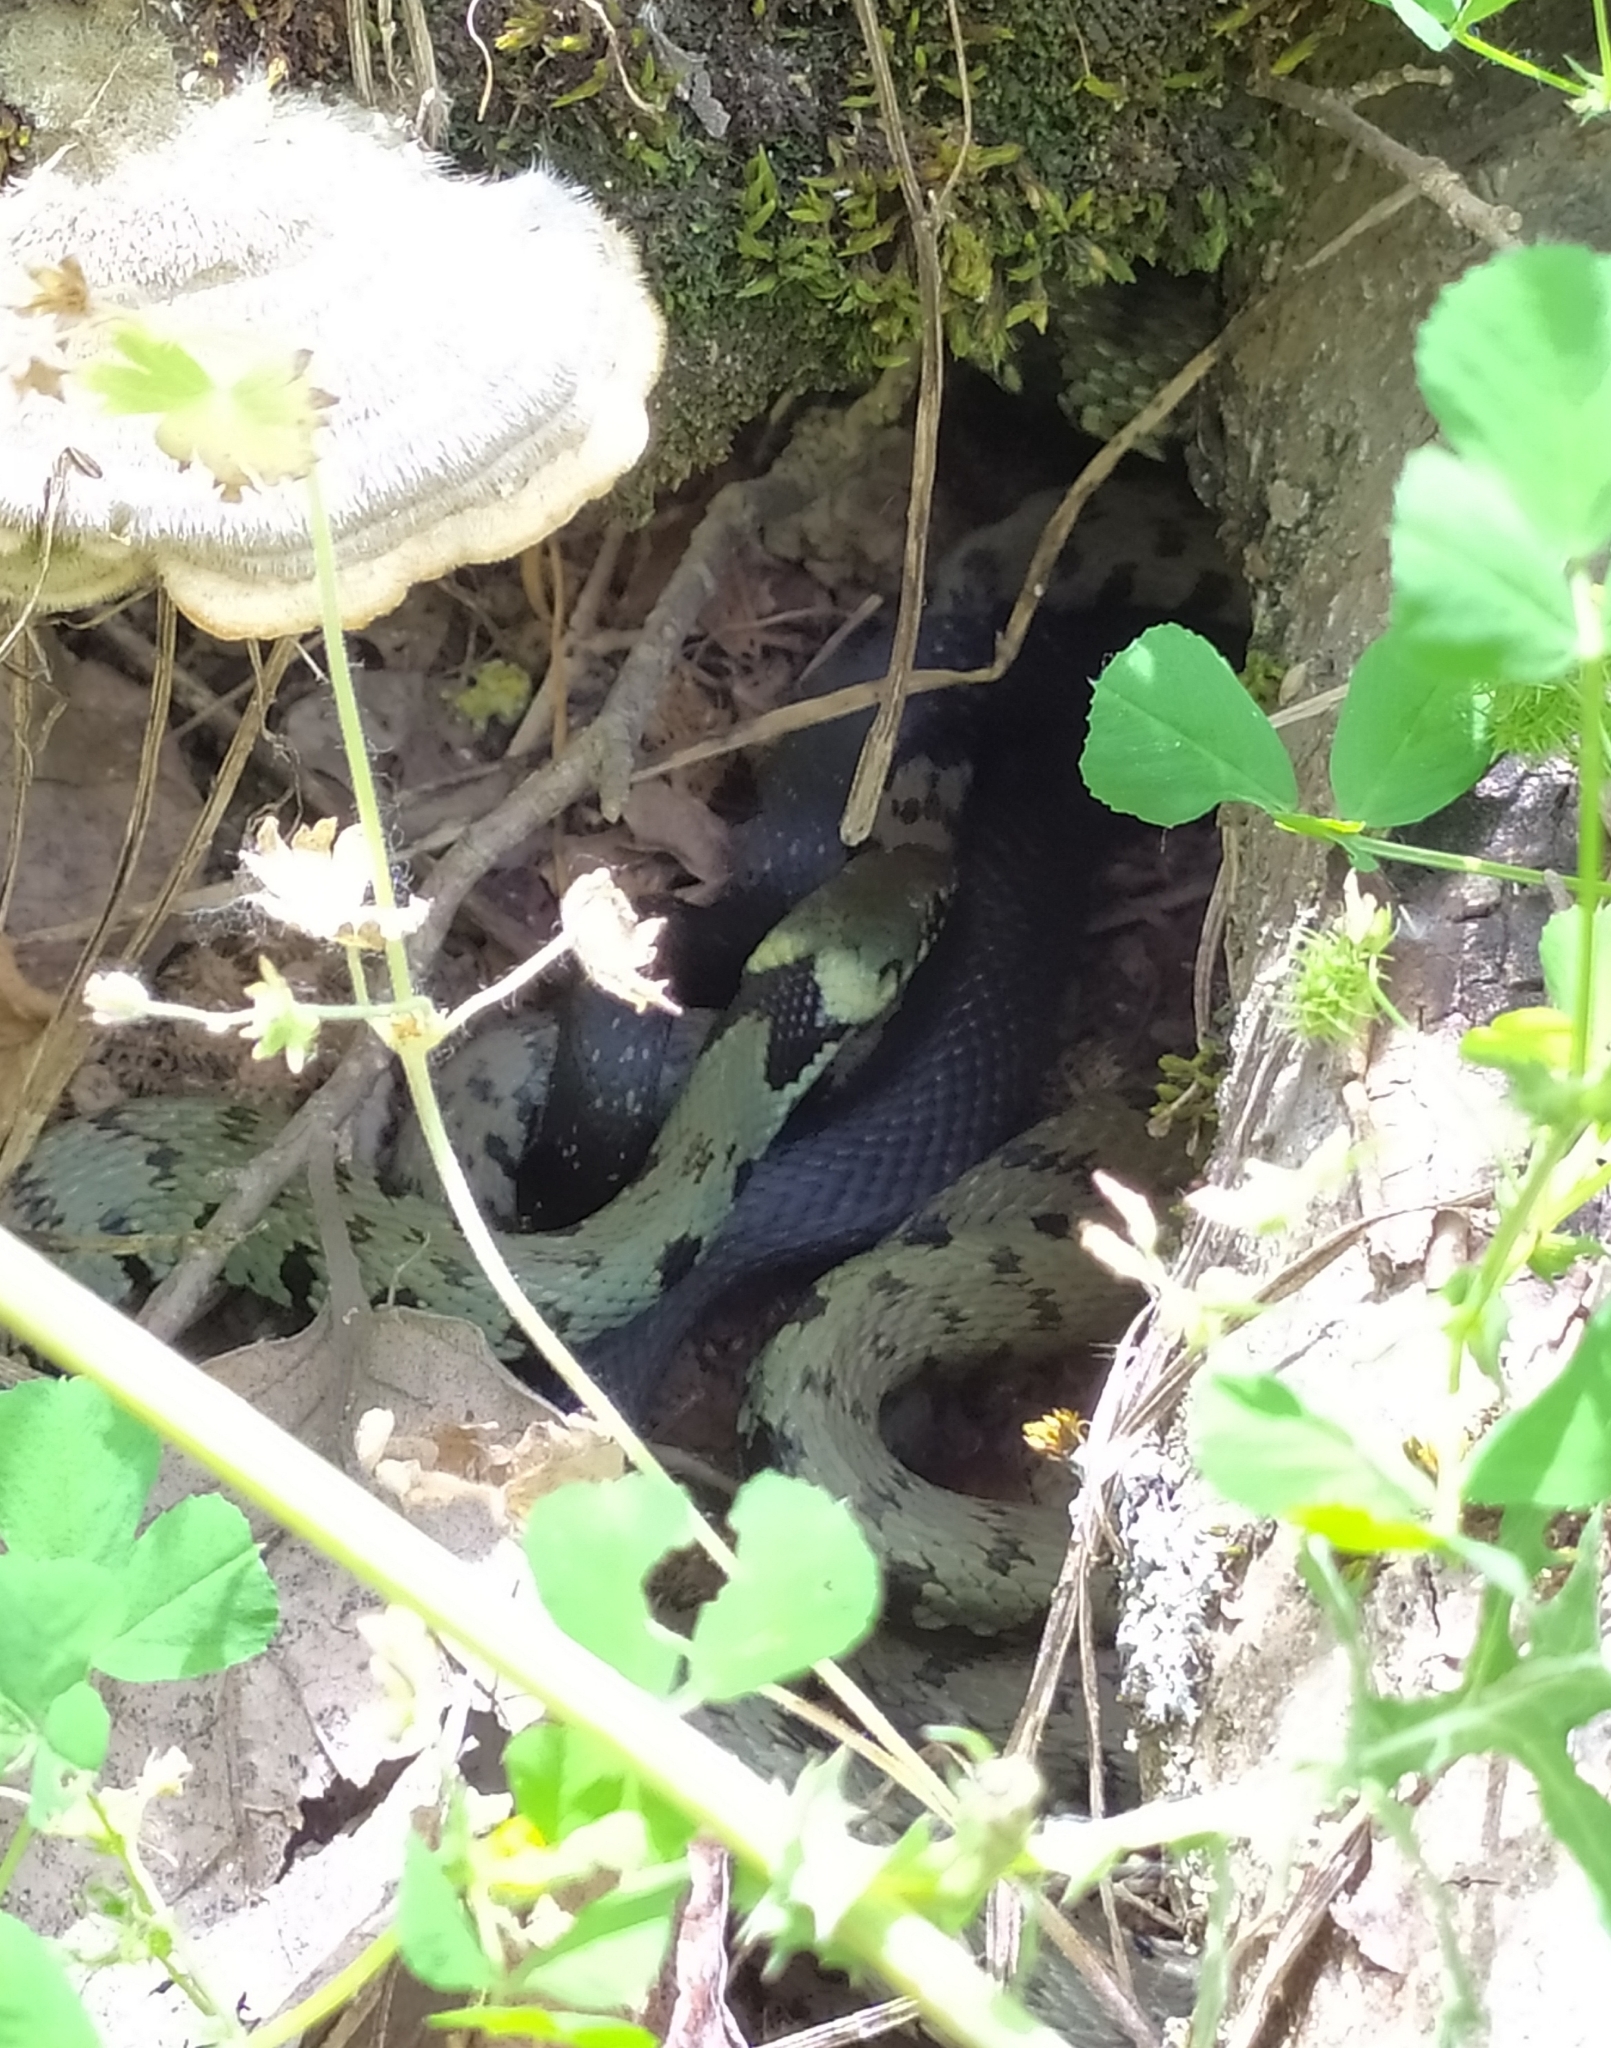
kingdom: Animalia
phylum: Chordata
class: Squamata
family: Colubridae
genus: Natrix
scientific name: Natrix helvetica
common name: Banded grass snake
